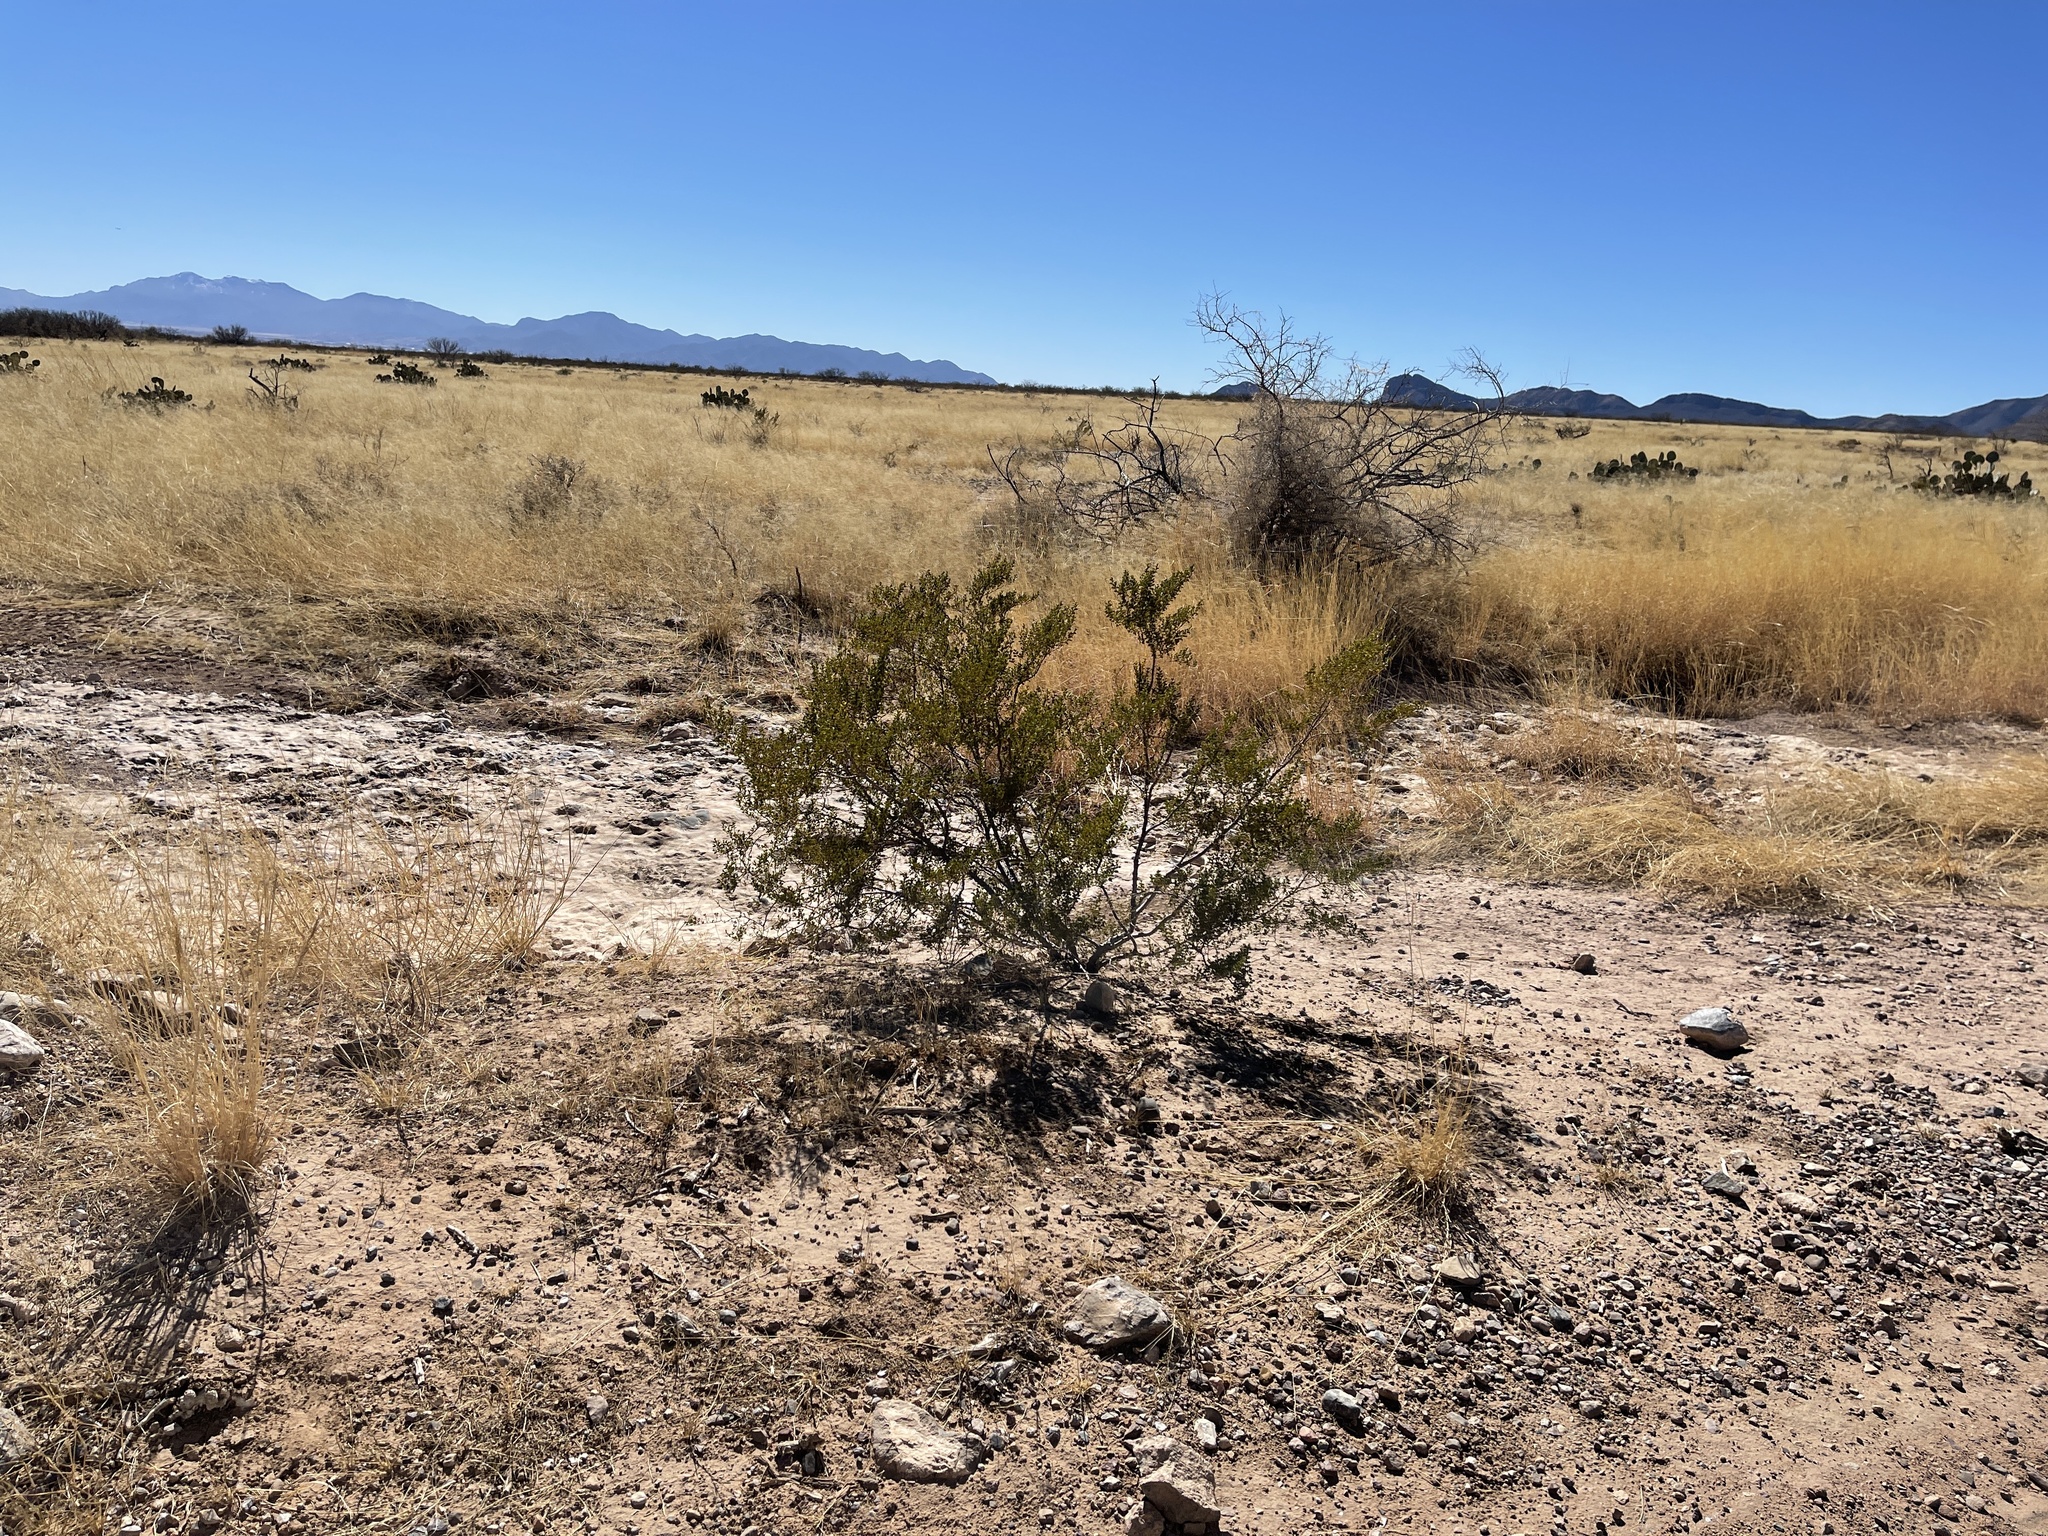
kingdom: Plantae
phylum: Tracheophyta
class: Magnoliopsida
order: Zygophyllales
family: Zygophyllaceae
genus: Larrea
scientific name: Larrea tridentata
